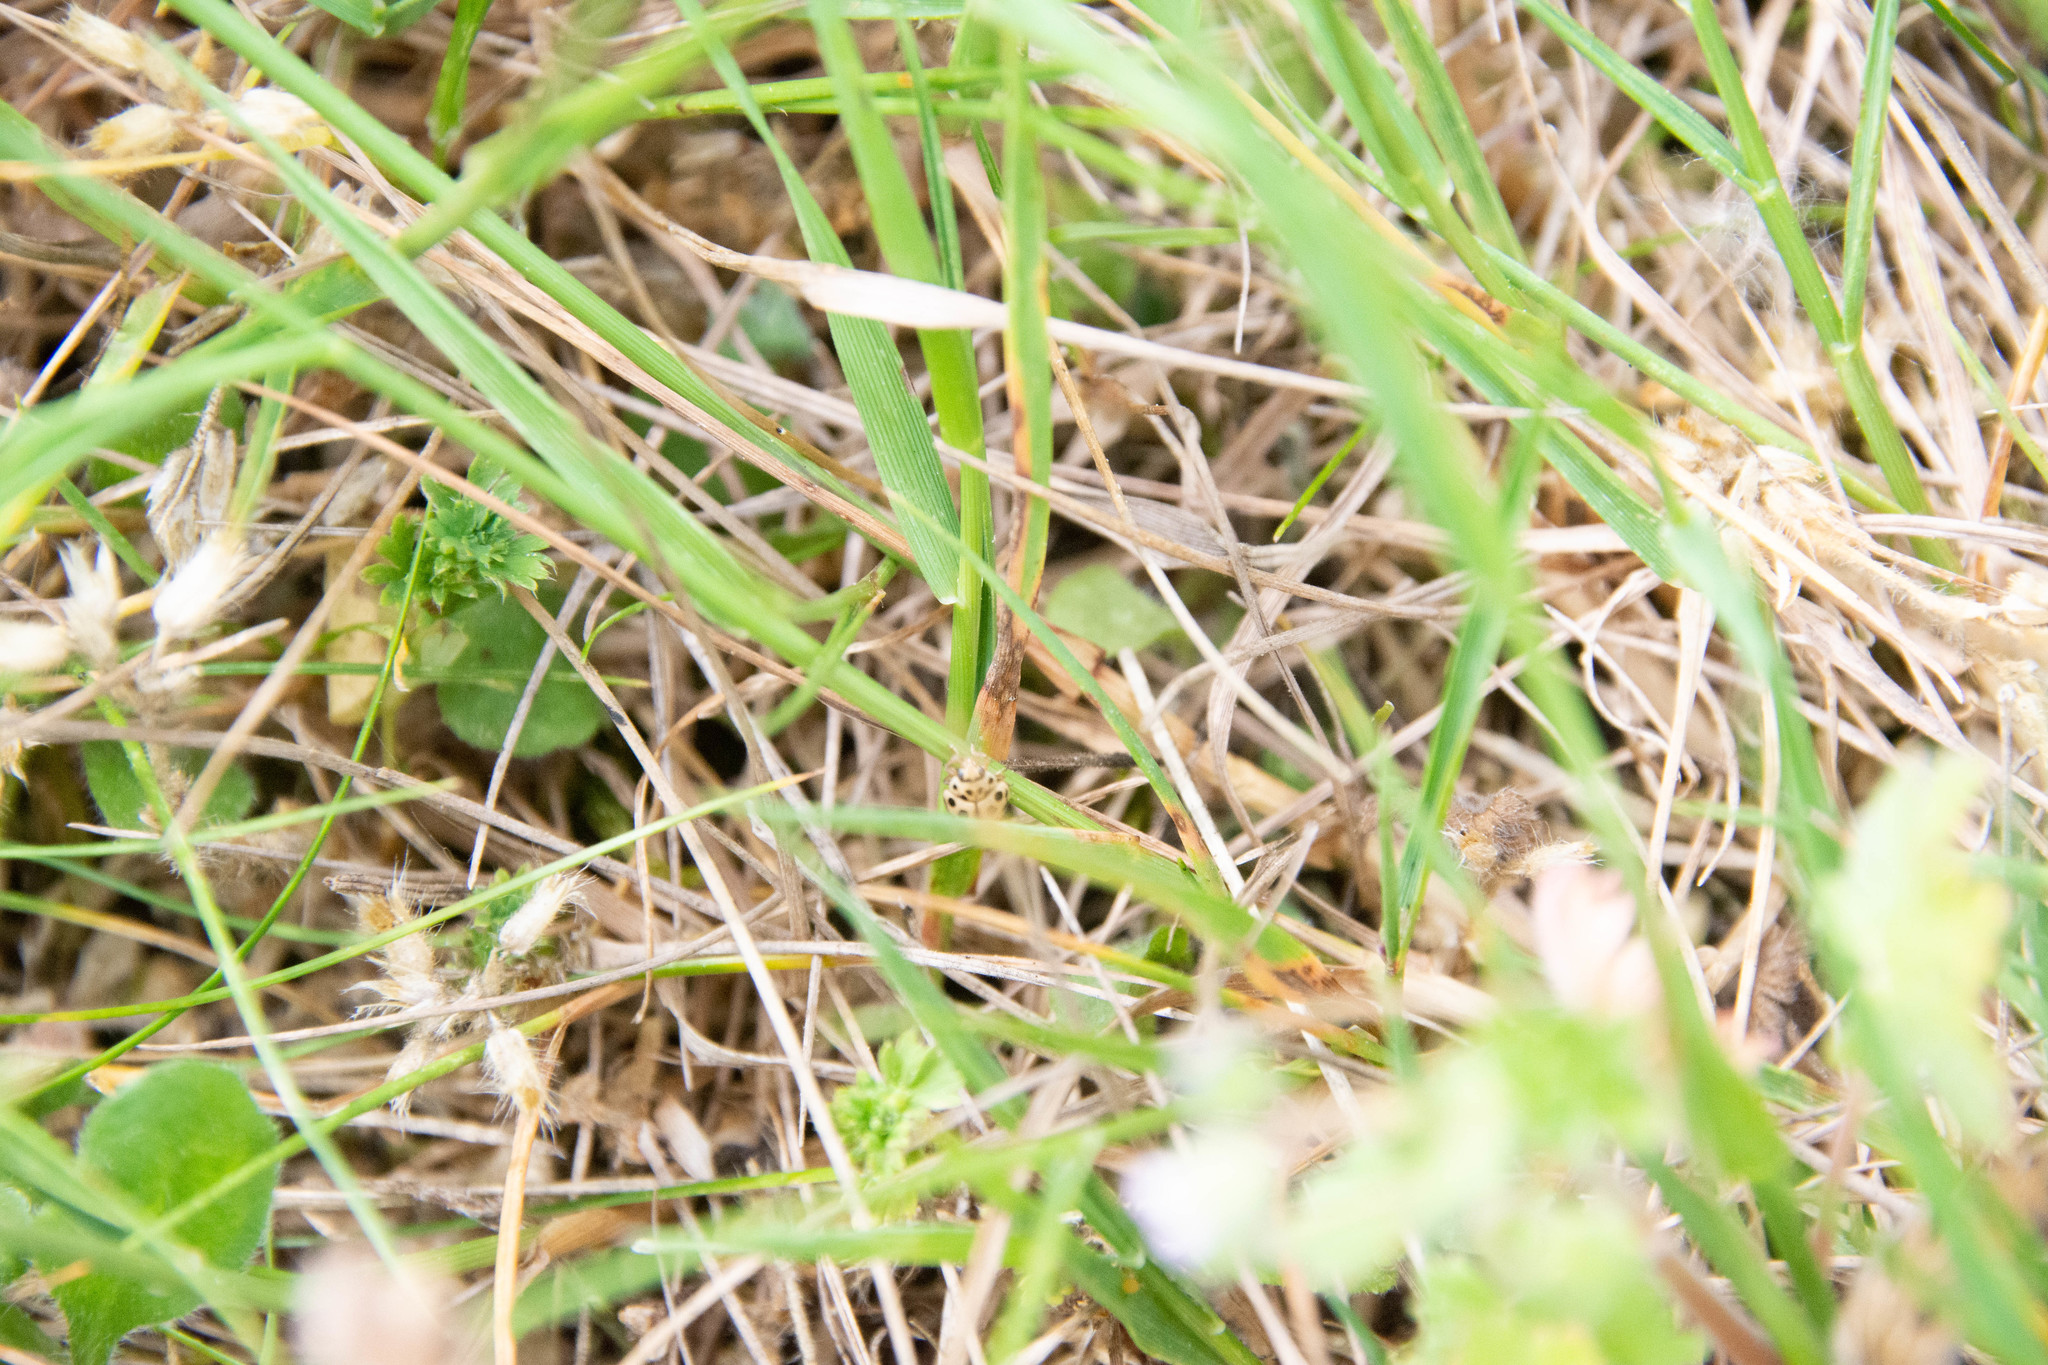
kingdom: Animalia
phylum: Arthropoda
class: Insecta
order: Coleoptera
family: Coccinellidae
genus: Tytthaspis
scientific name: Tytthaspis sedecimpunctata
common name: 16-spot ladybird
